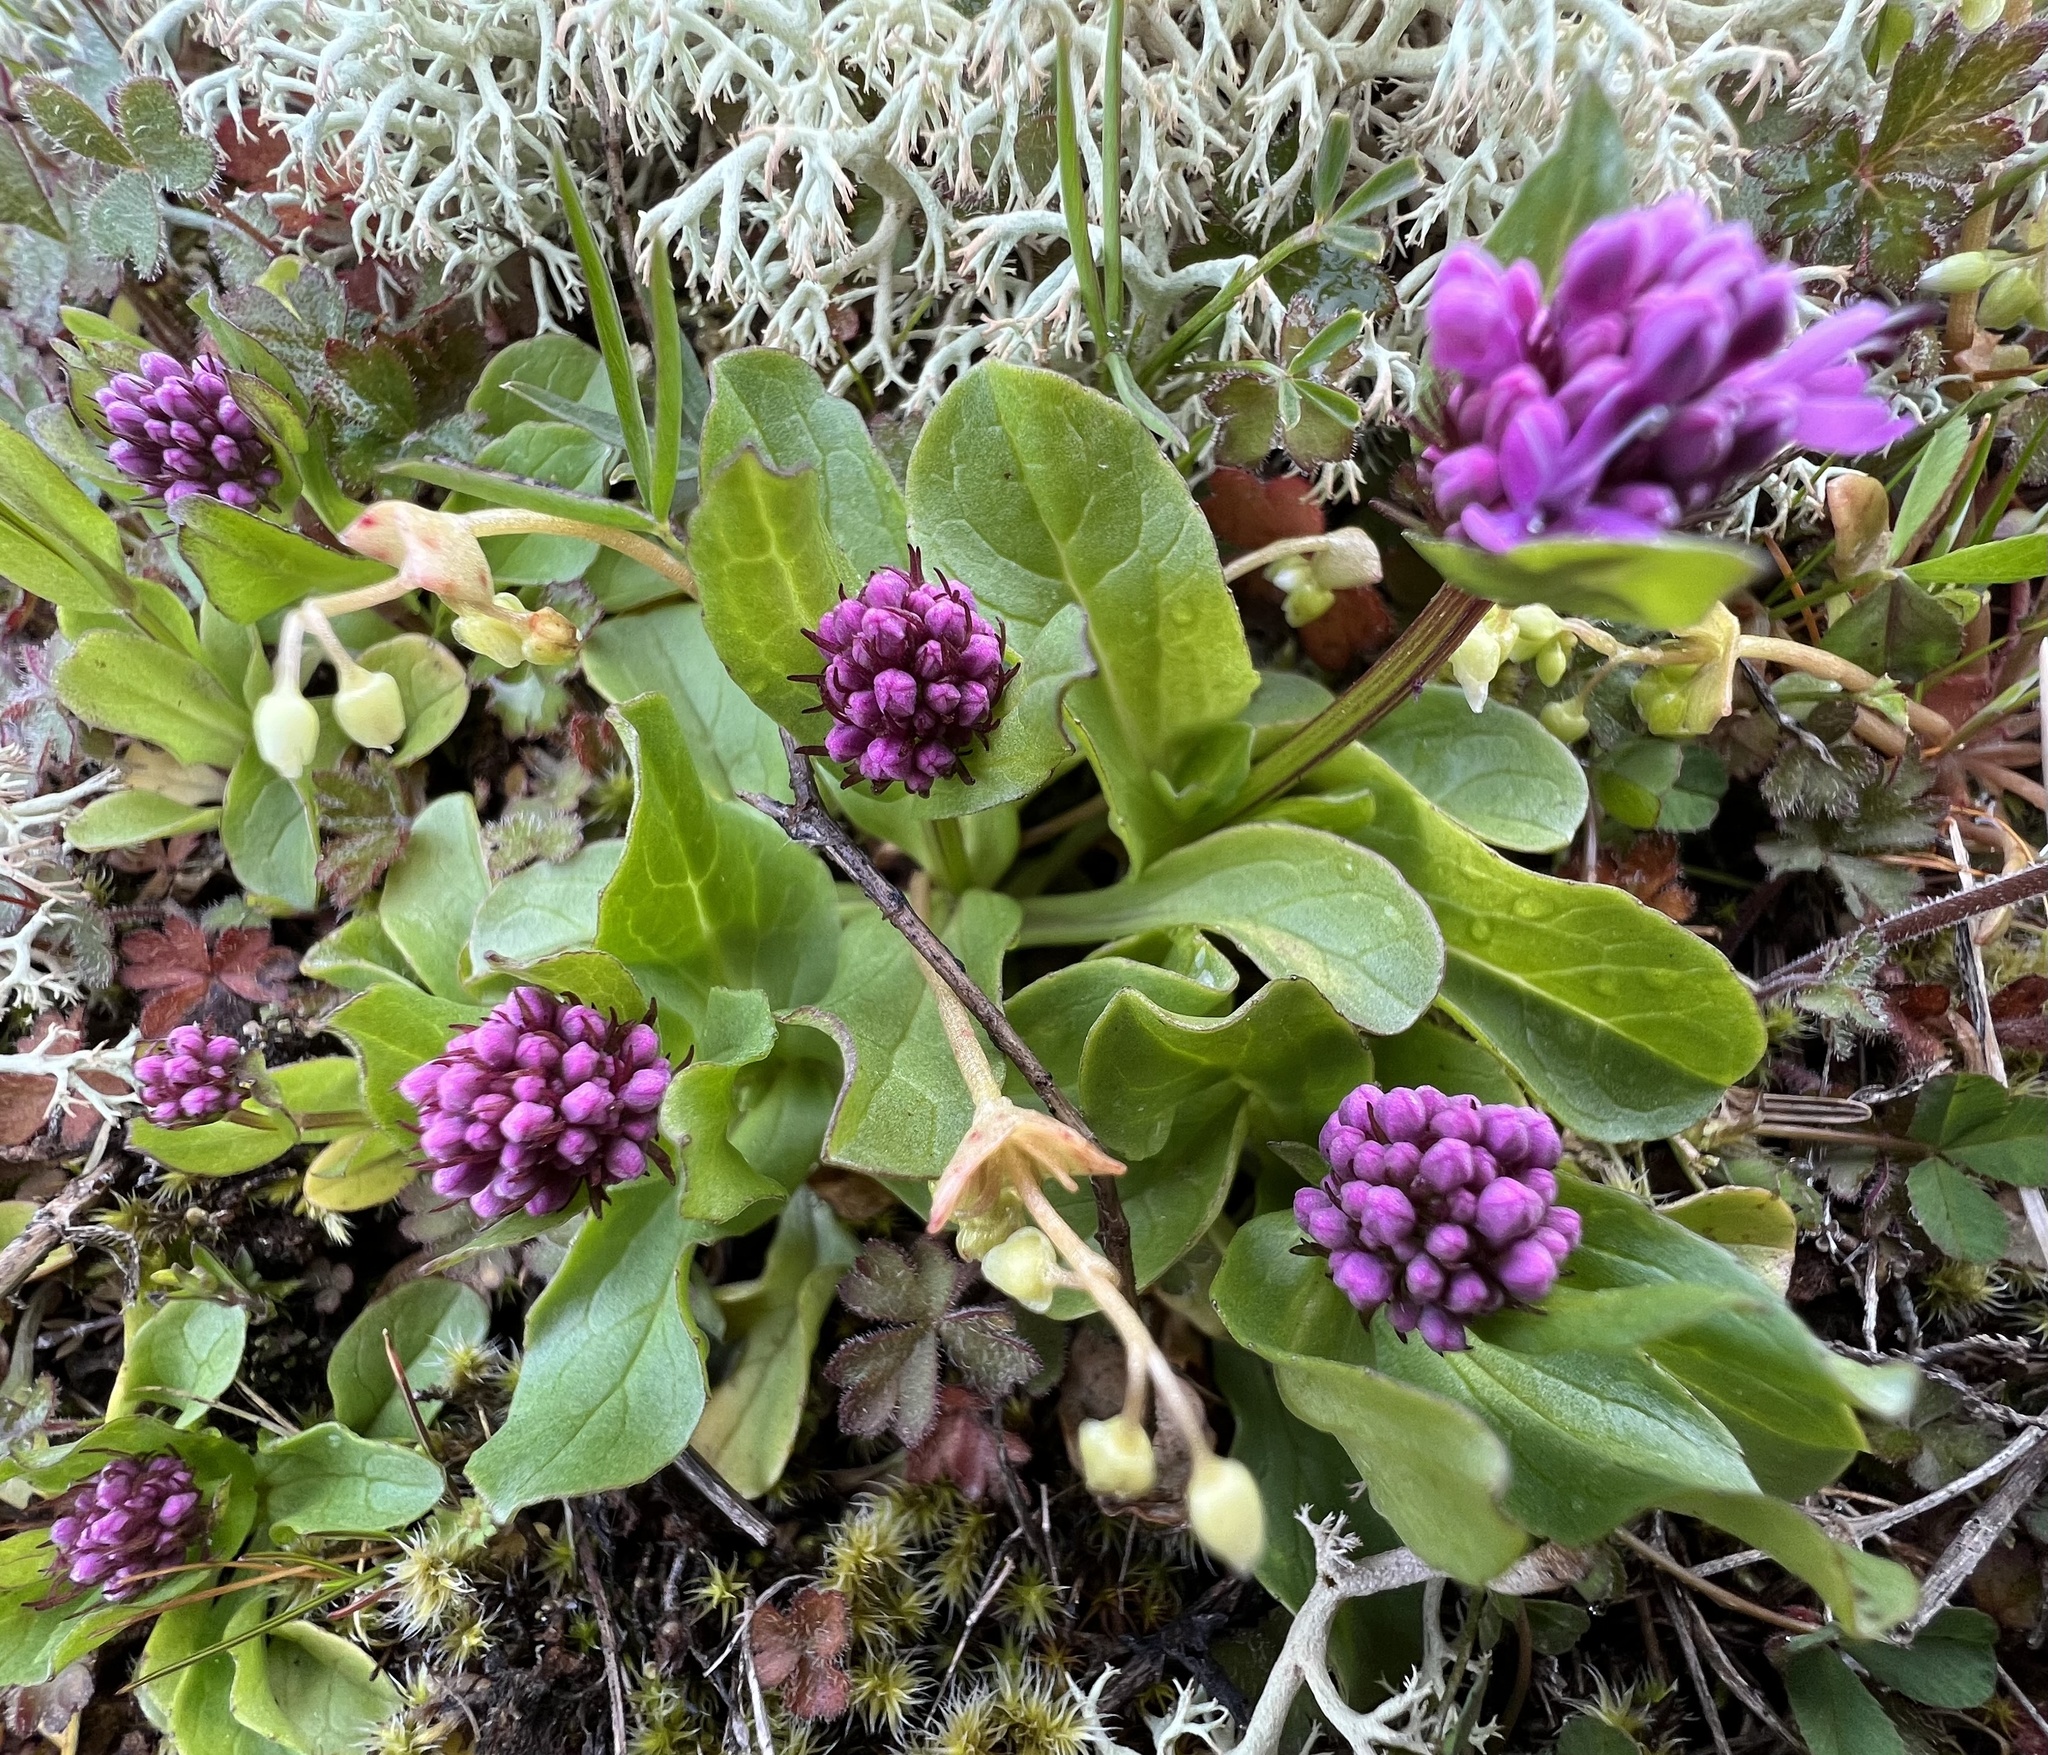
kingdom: Plantae
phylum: Tracheophyta
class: Magnoliopsida
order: Dipsacales
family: Caprifoliaceae
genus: Plectritis
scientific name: Plectritis congesta
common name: Pink plectritis
